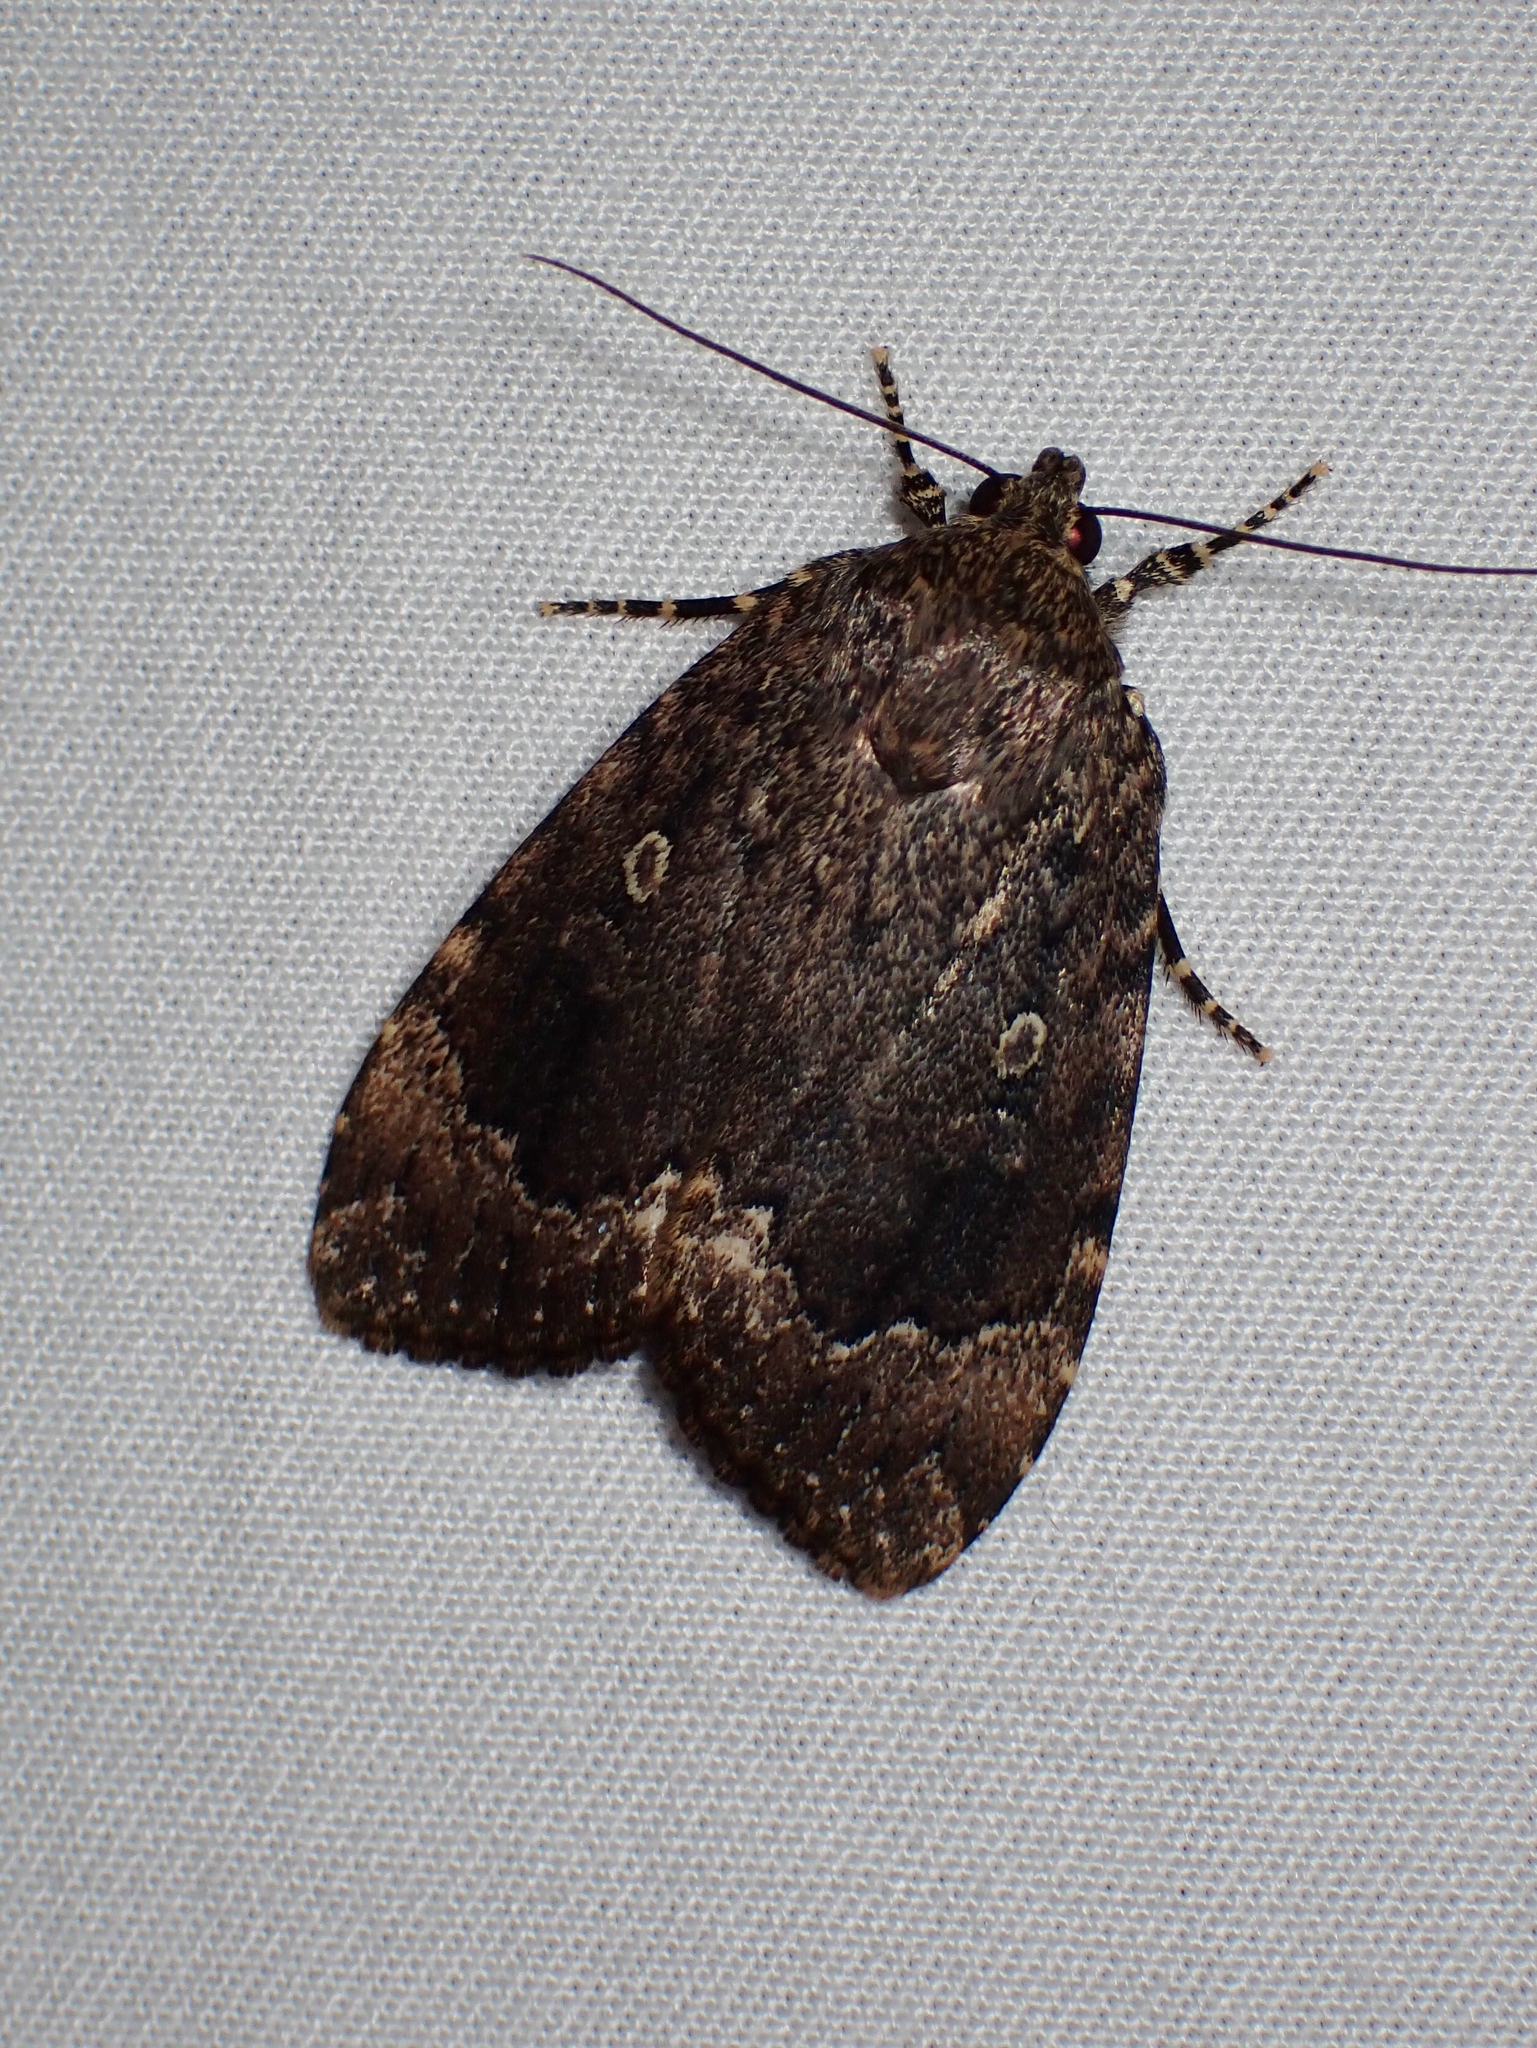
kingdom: Animalia
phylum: Arthropoda
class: Insecta
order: Lepidoptera
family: Noctuidae
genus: Amphipyra
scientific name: Amphipyra pyramidoides
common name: American copper underwing
